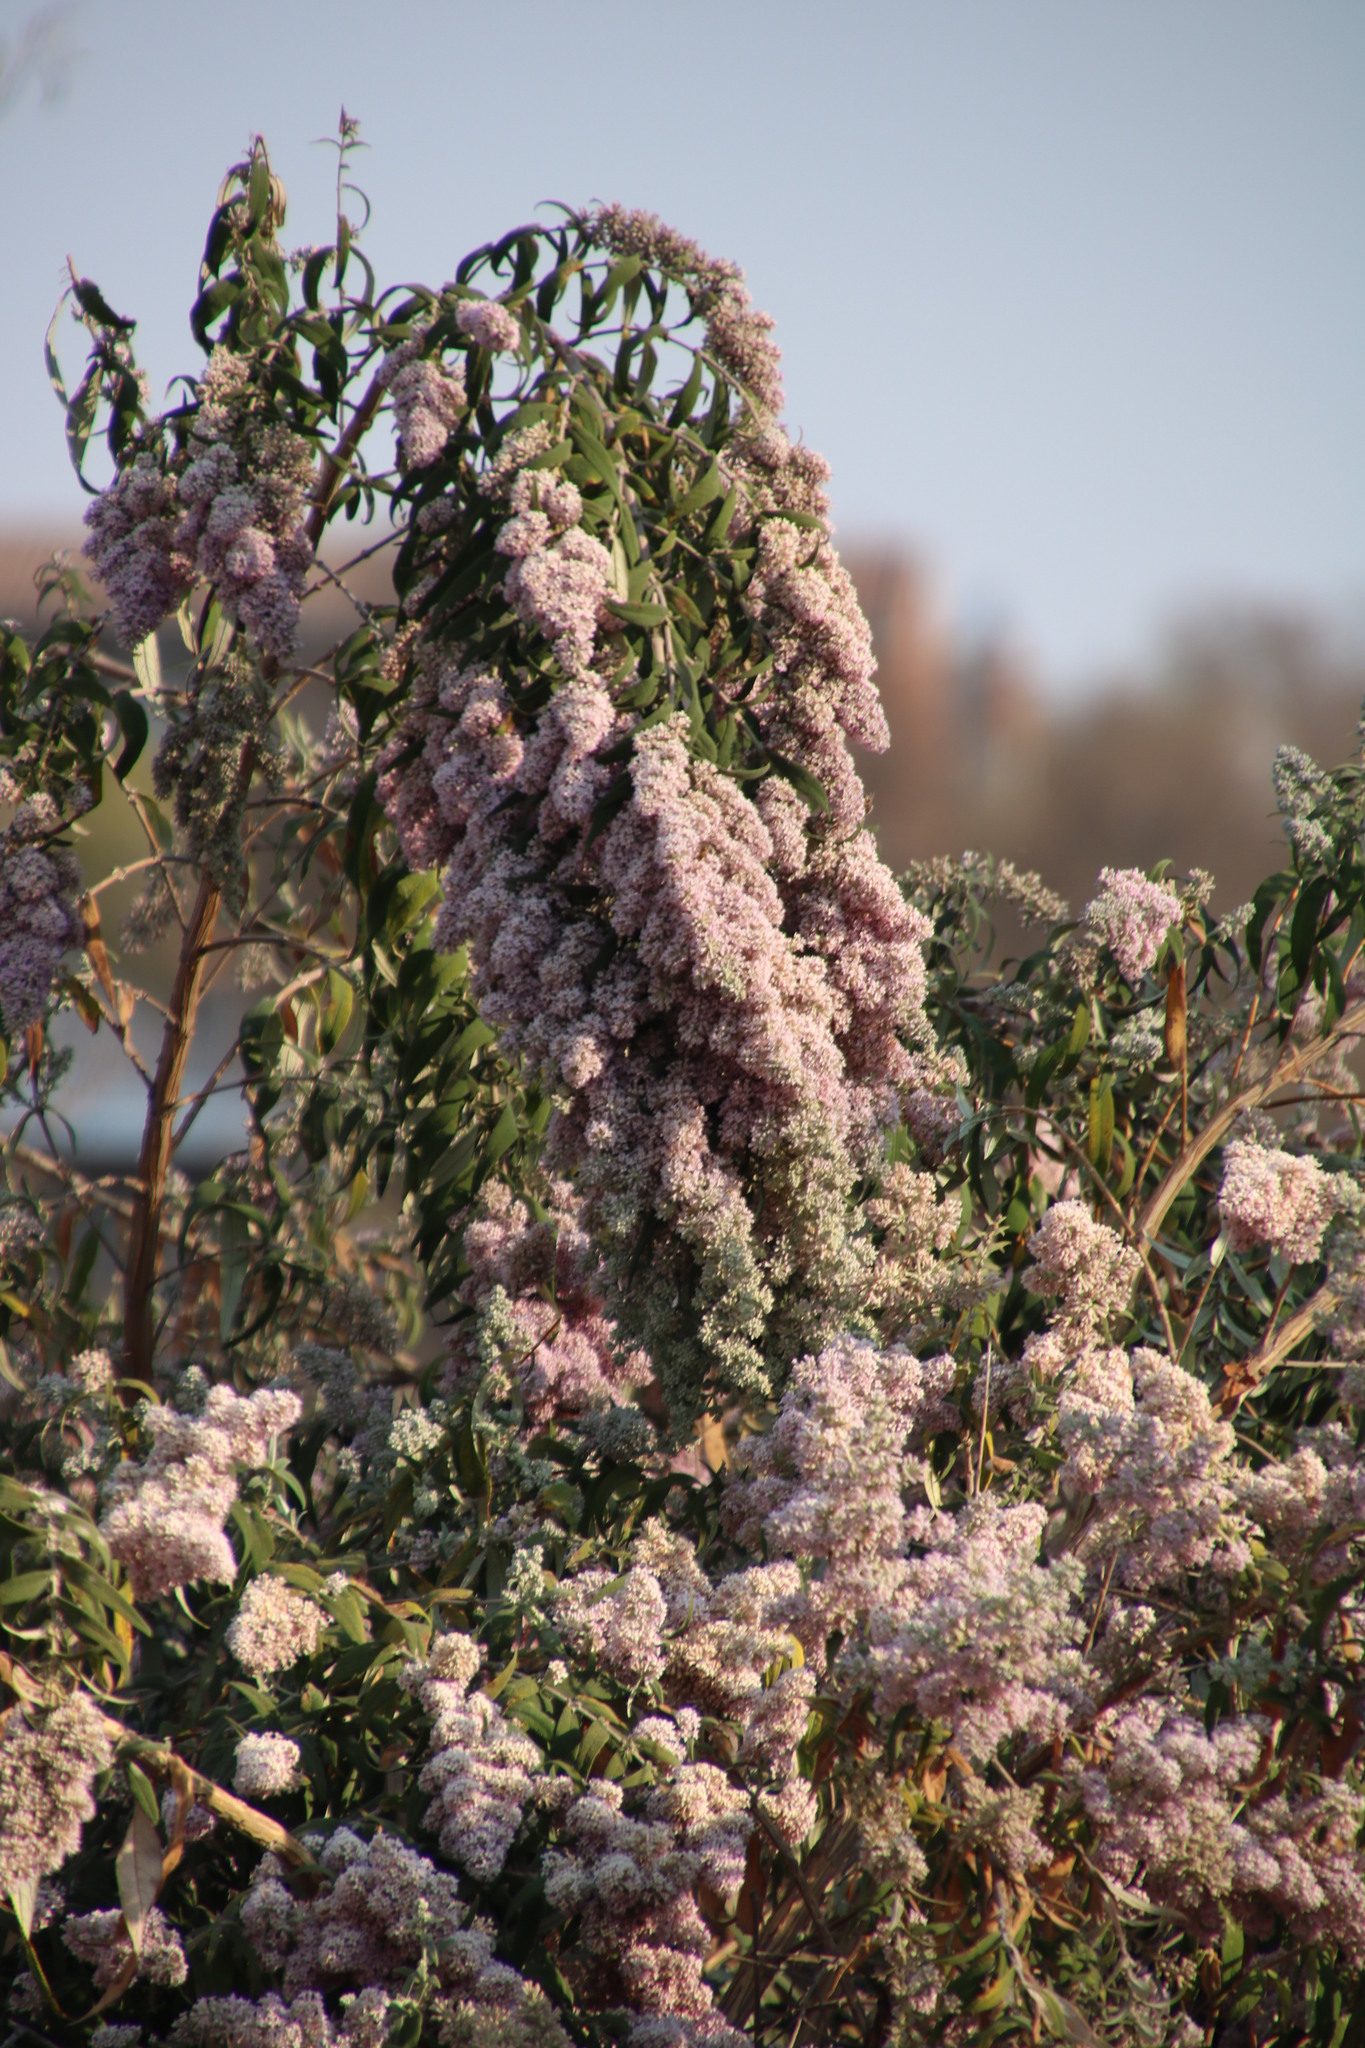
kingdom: Plantae
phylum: Tracheophyta
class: Magnoliopsida
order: Lamiales
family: Scrophulariaceae
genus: Buddleja
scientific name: Buddleja salviifolia
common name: Sagewood
